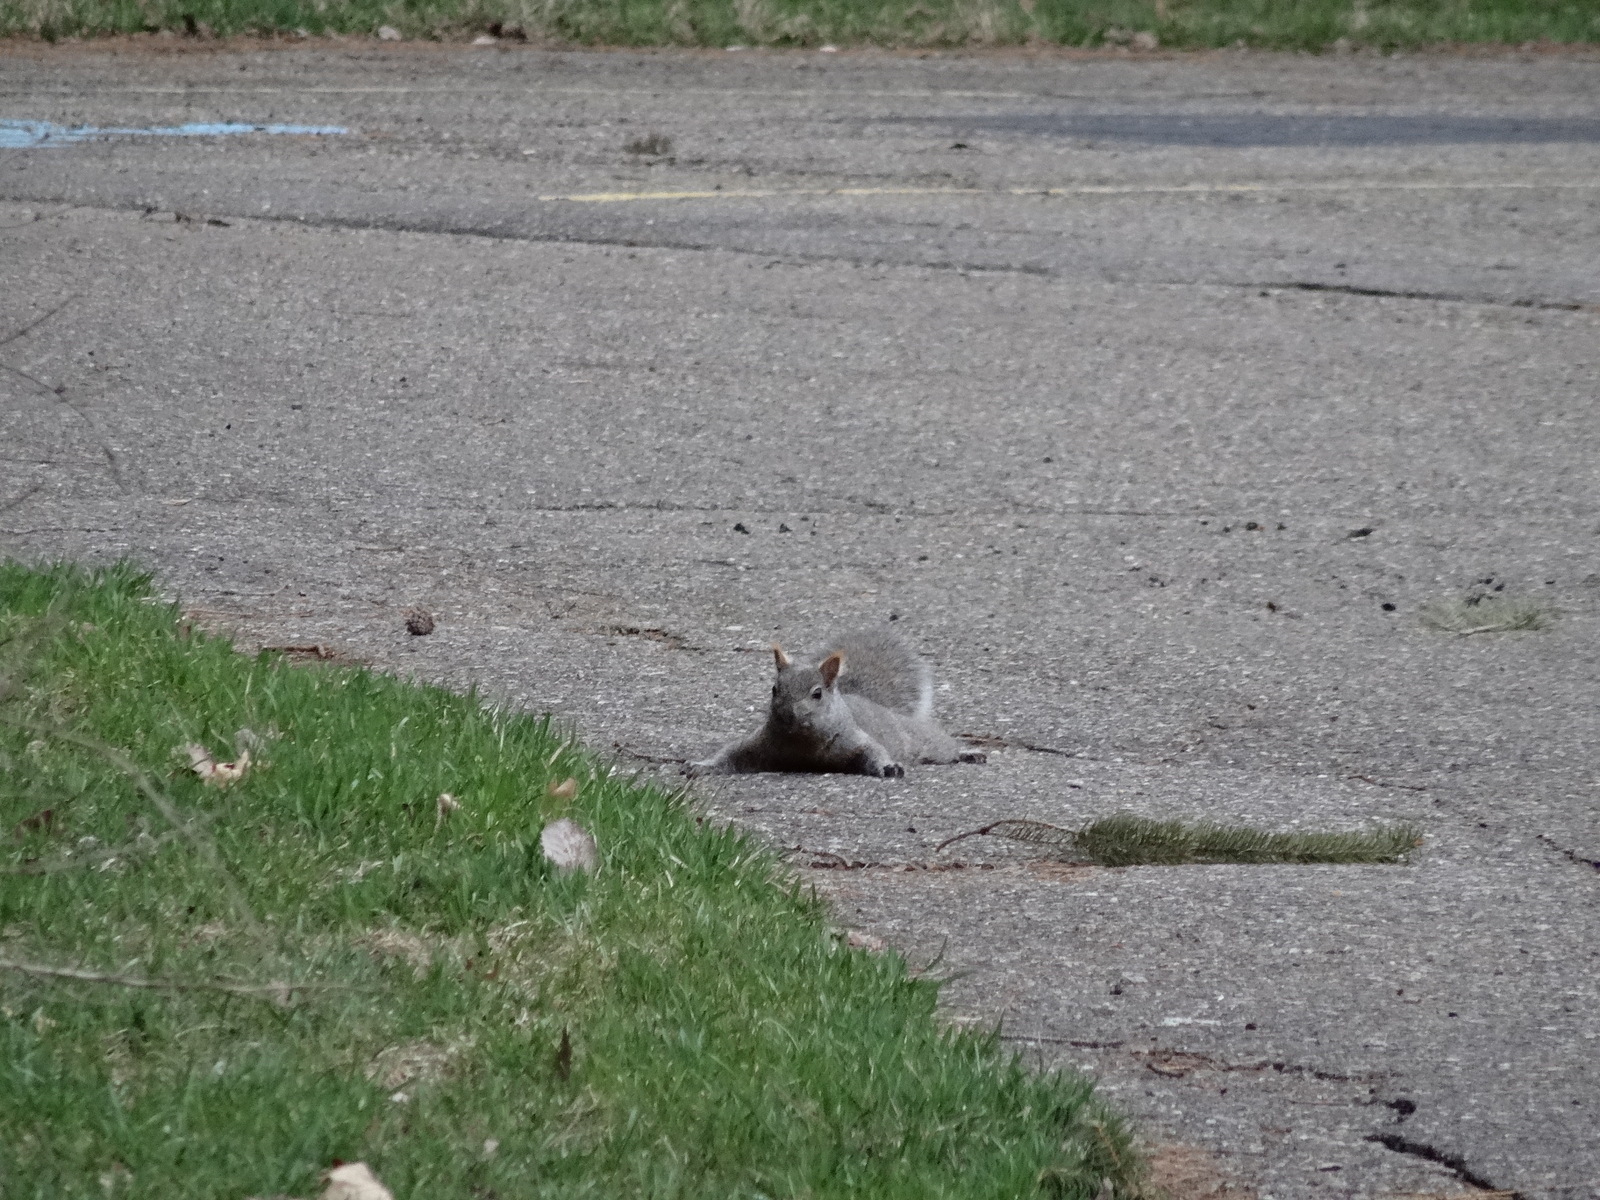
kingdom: Animalia
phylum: Chordata
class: Mammalia
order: Rodentia
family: Sciuridae
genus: Sciurus
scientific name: Sciurus carolinensis
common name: Eastern gray squirrel
